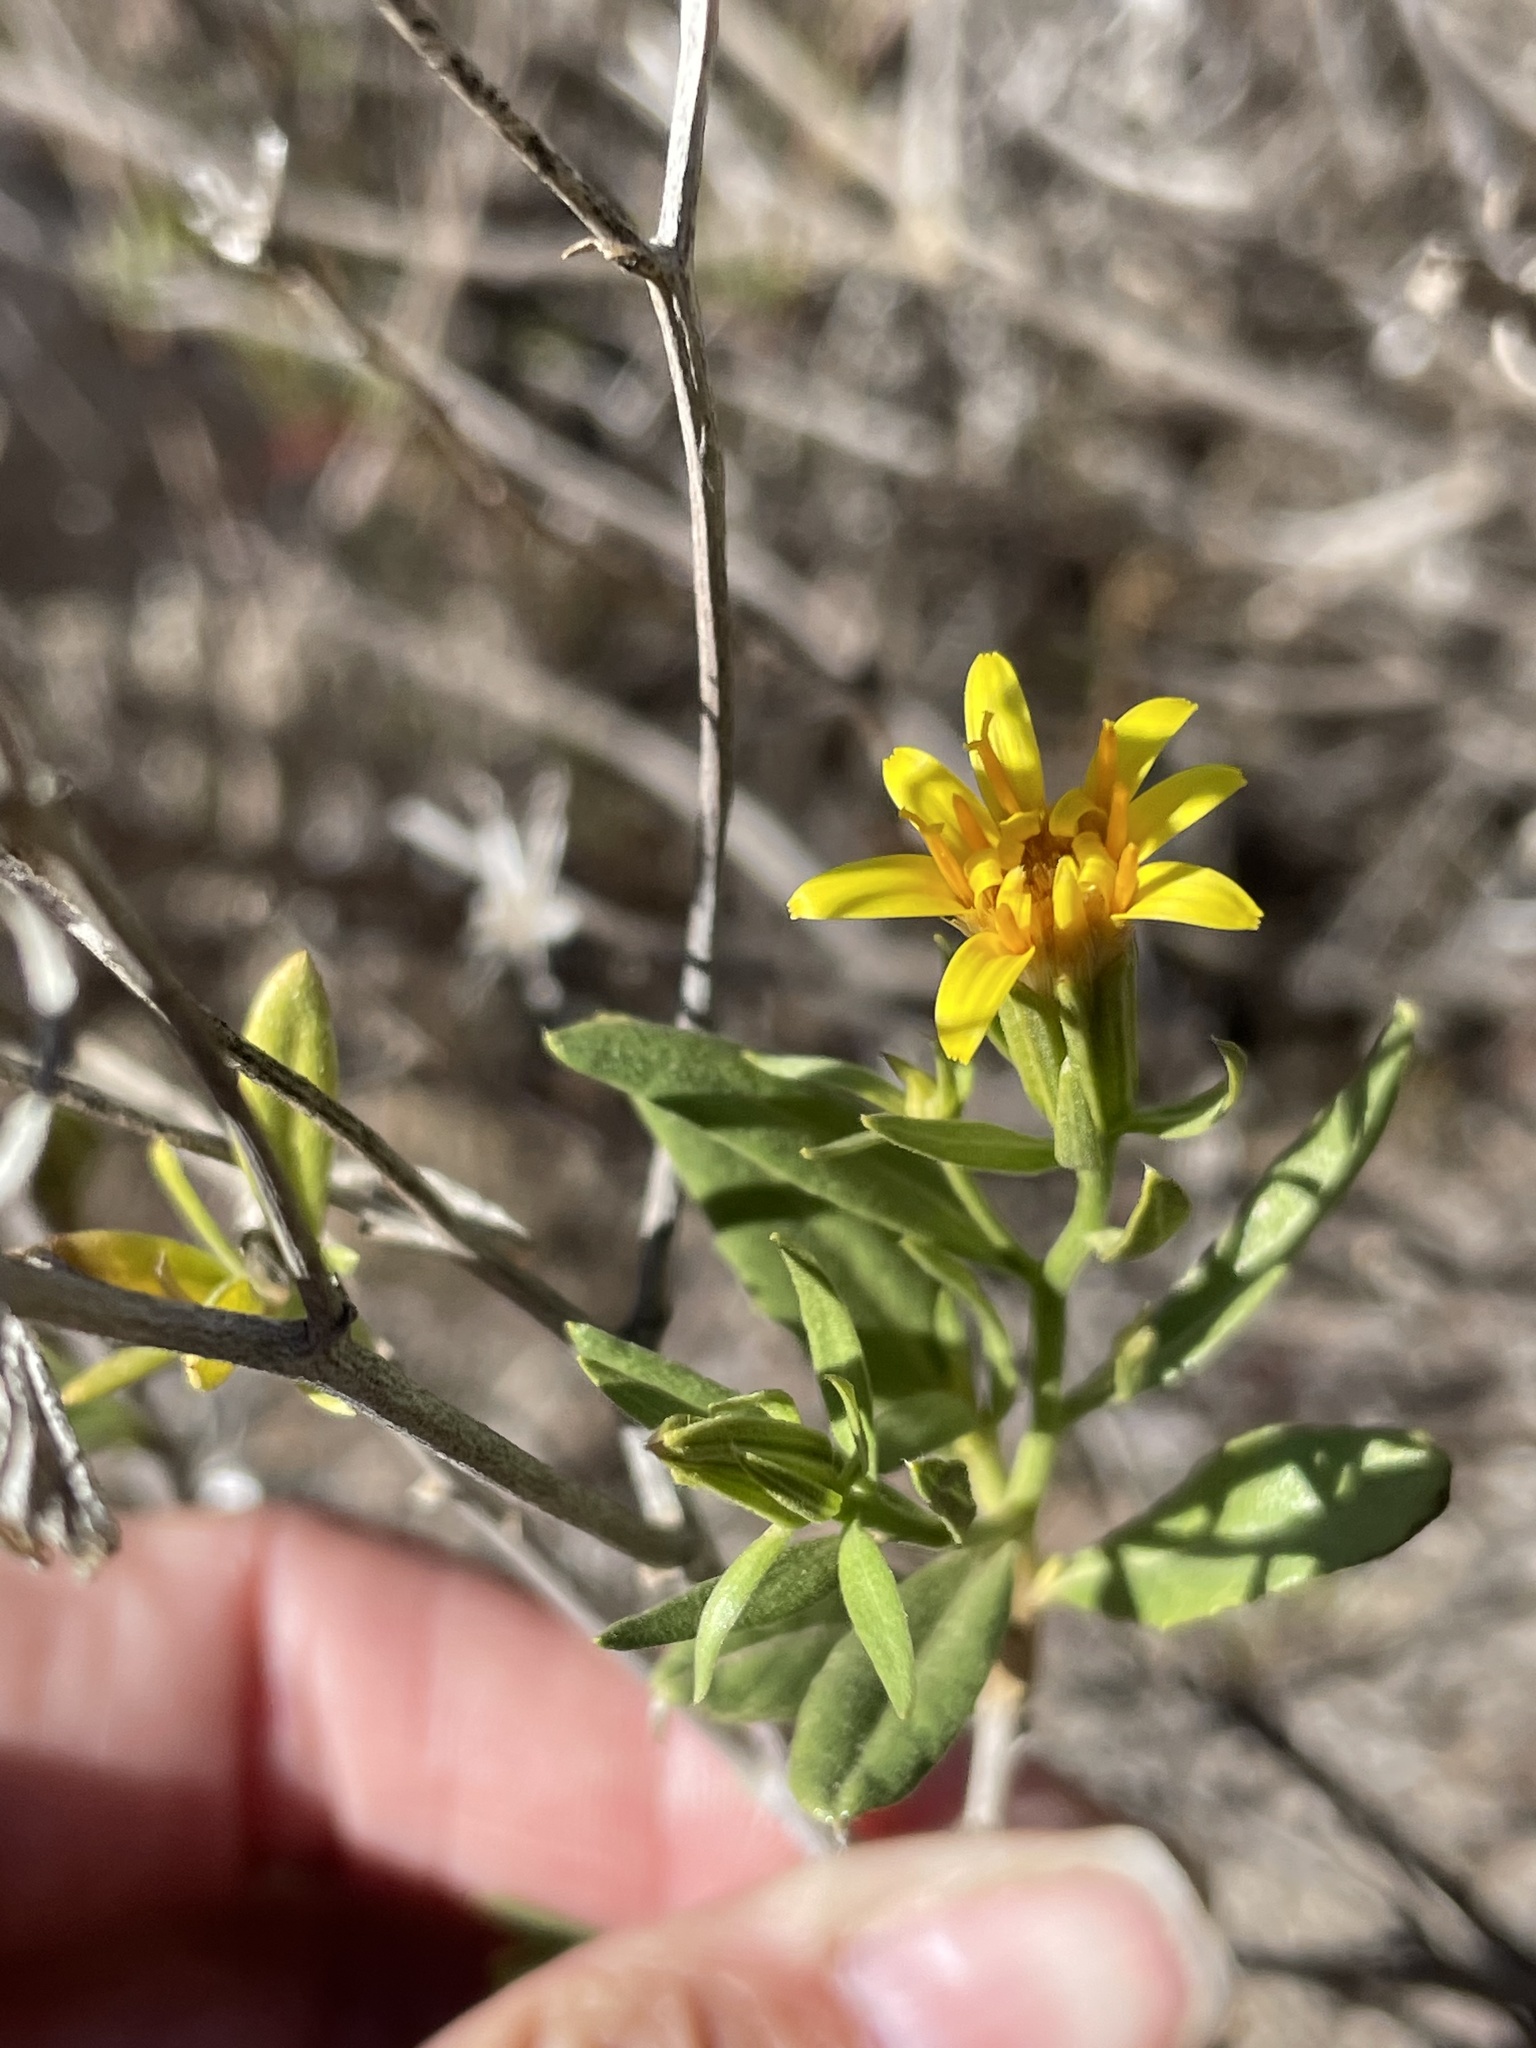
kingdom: Plantae
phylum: Tracheophyta
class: Magnoliopsida
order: Asterales
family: Asteraceae
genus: Trixis
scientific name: Trixis californica
